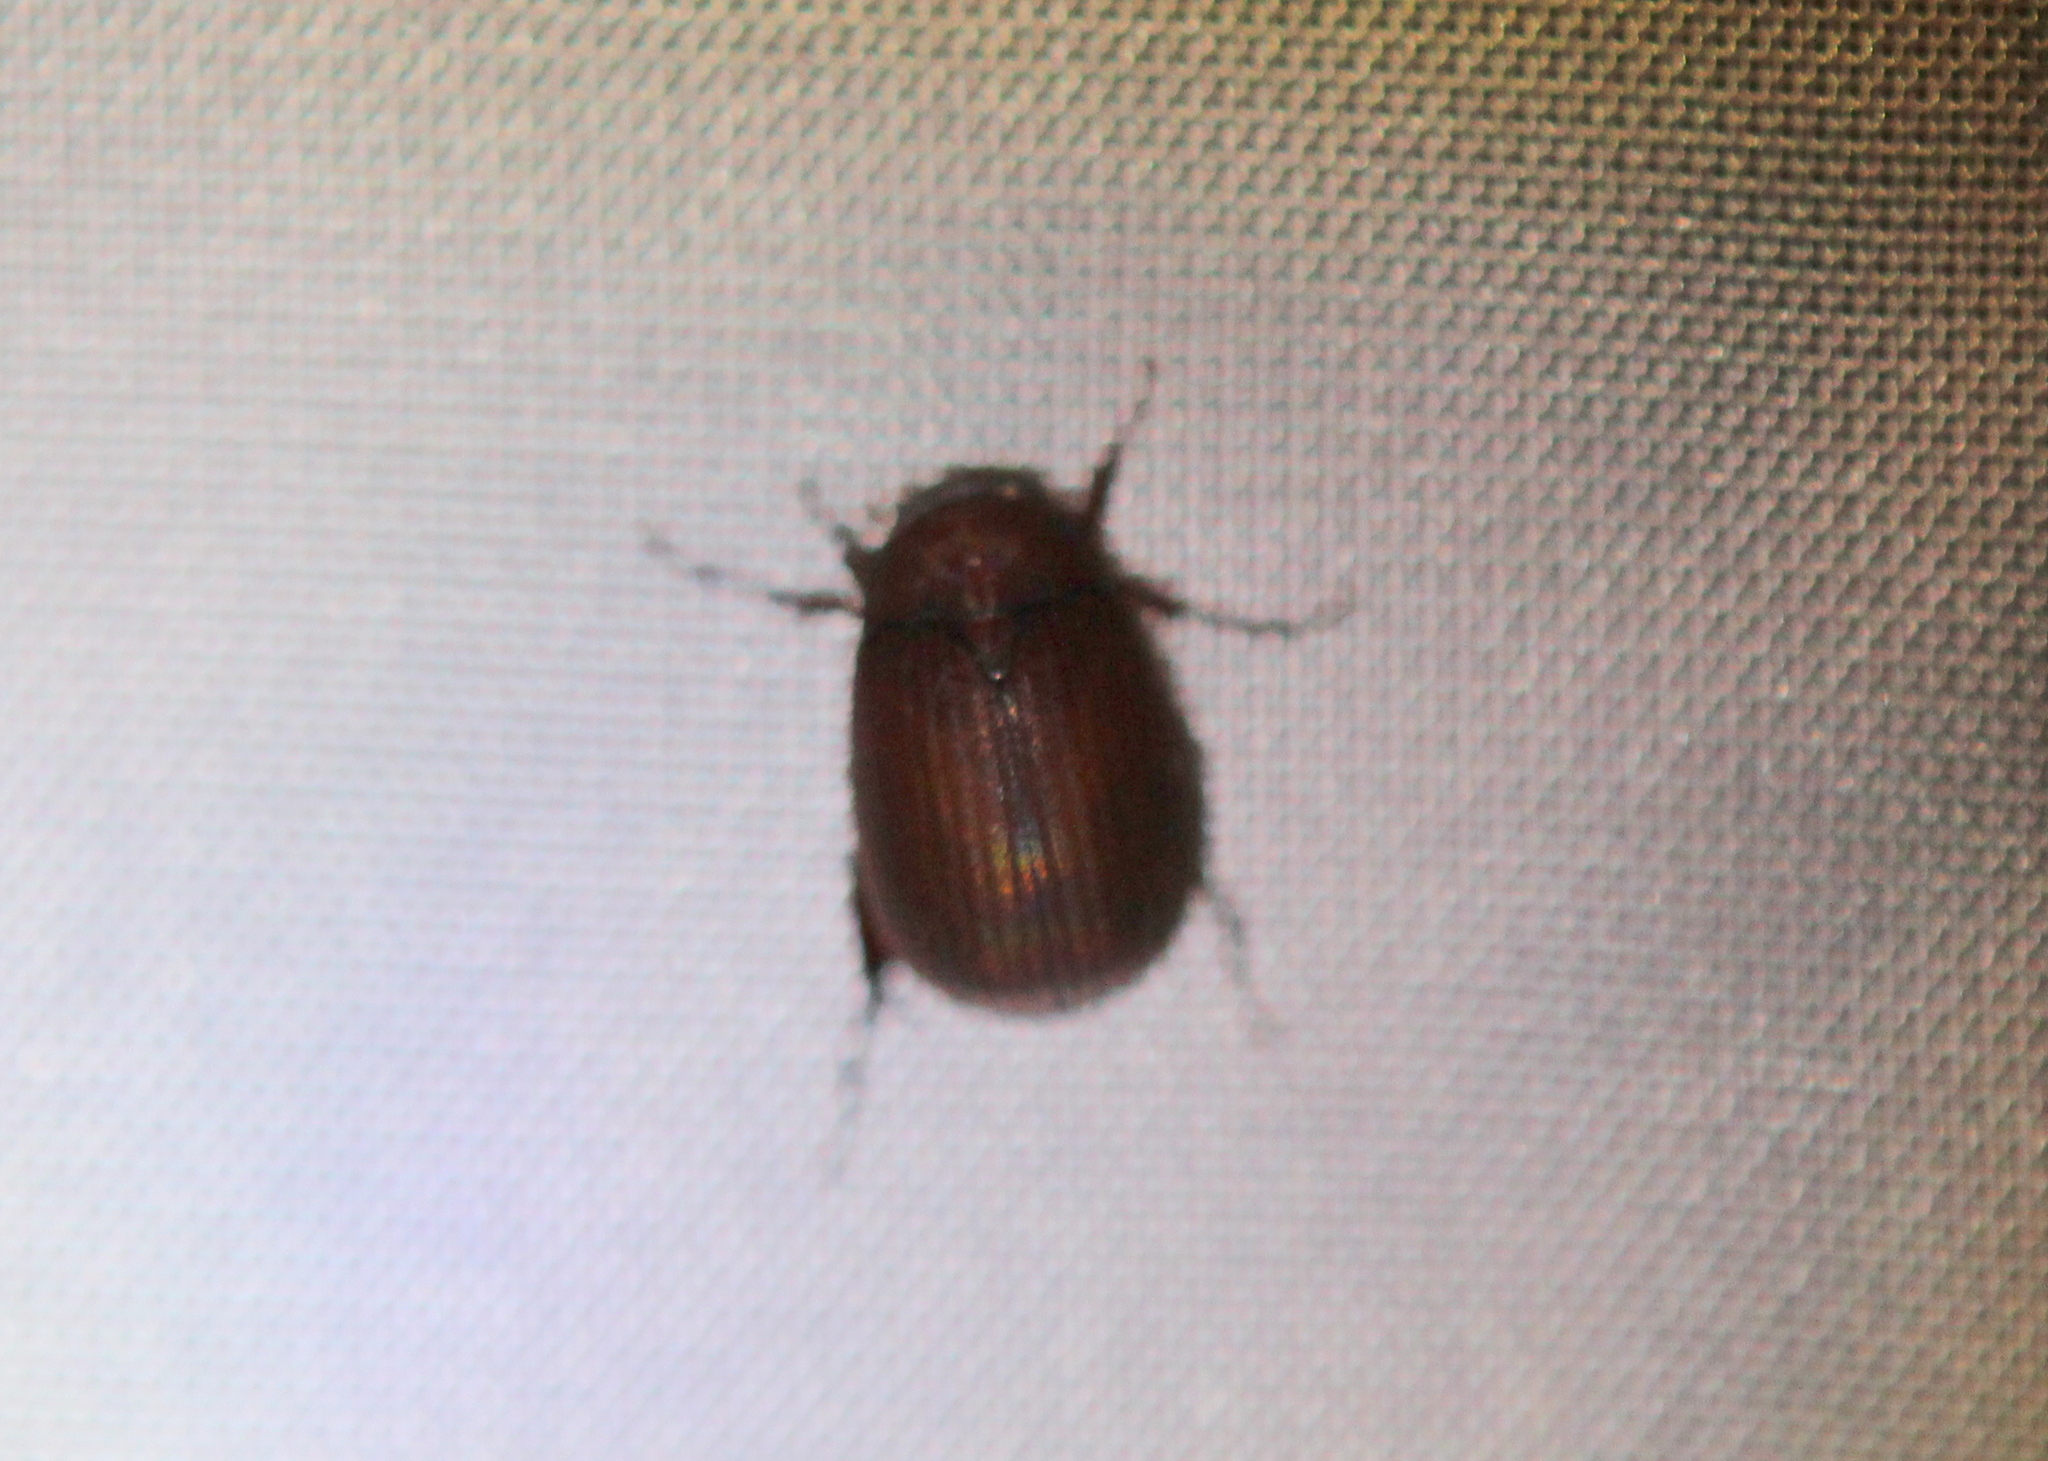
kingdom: Animalia
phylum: Arthropoda
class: Insecta
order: Coleoptera
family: Scarabaeidae
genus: Maladera
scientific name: Maladera formosae
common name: Asiatic garden beetle
